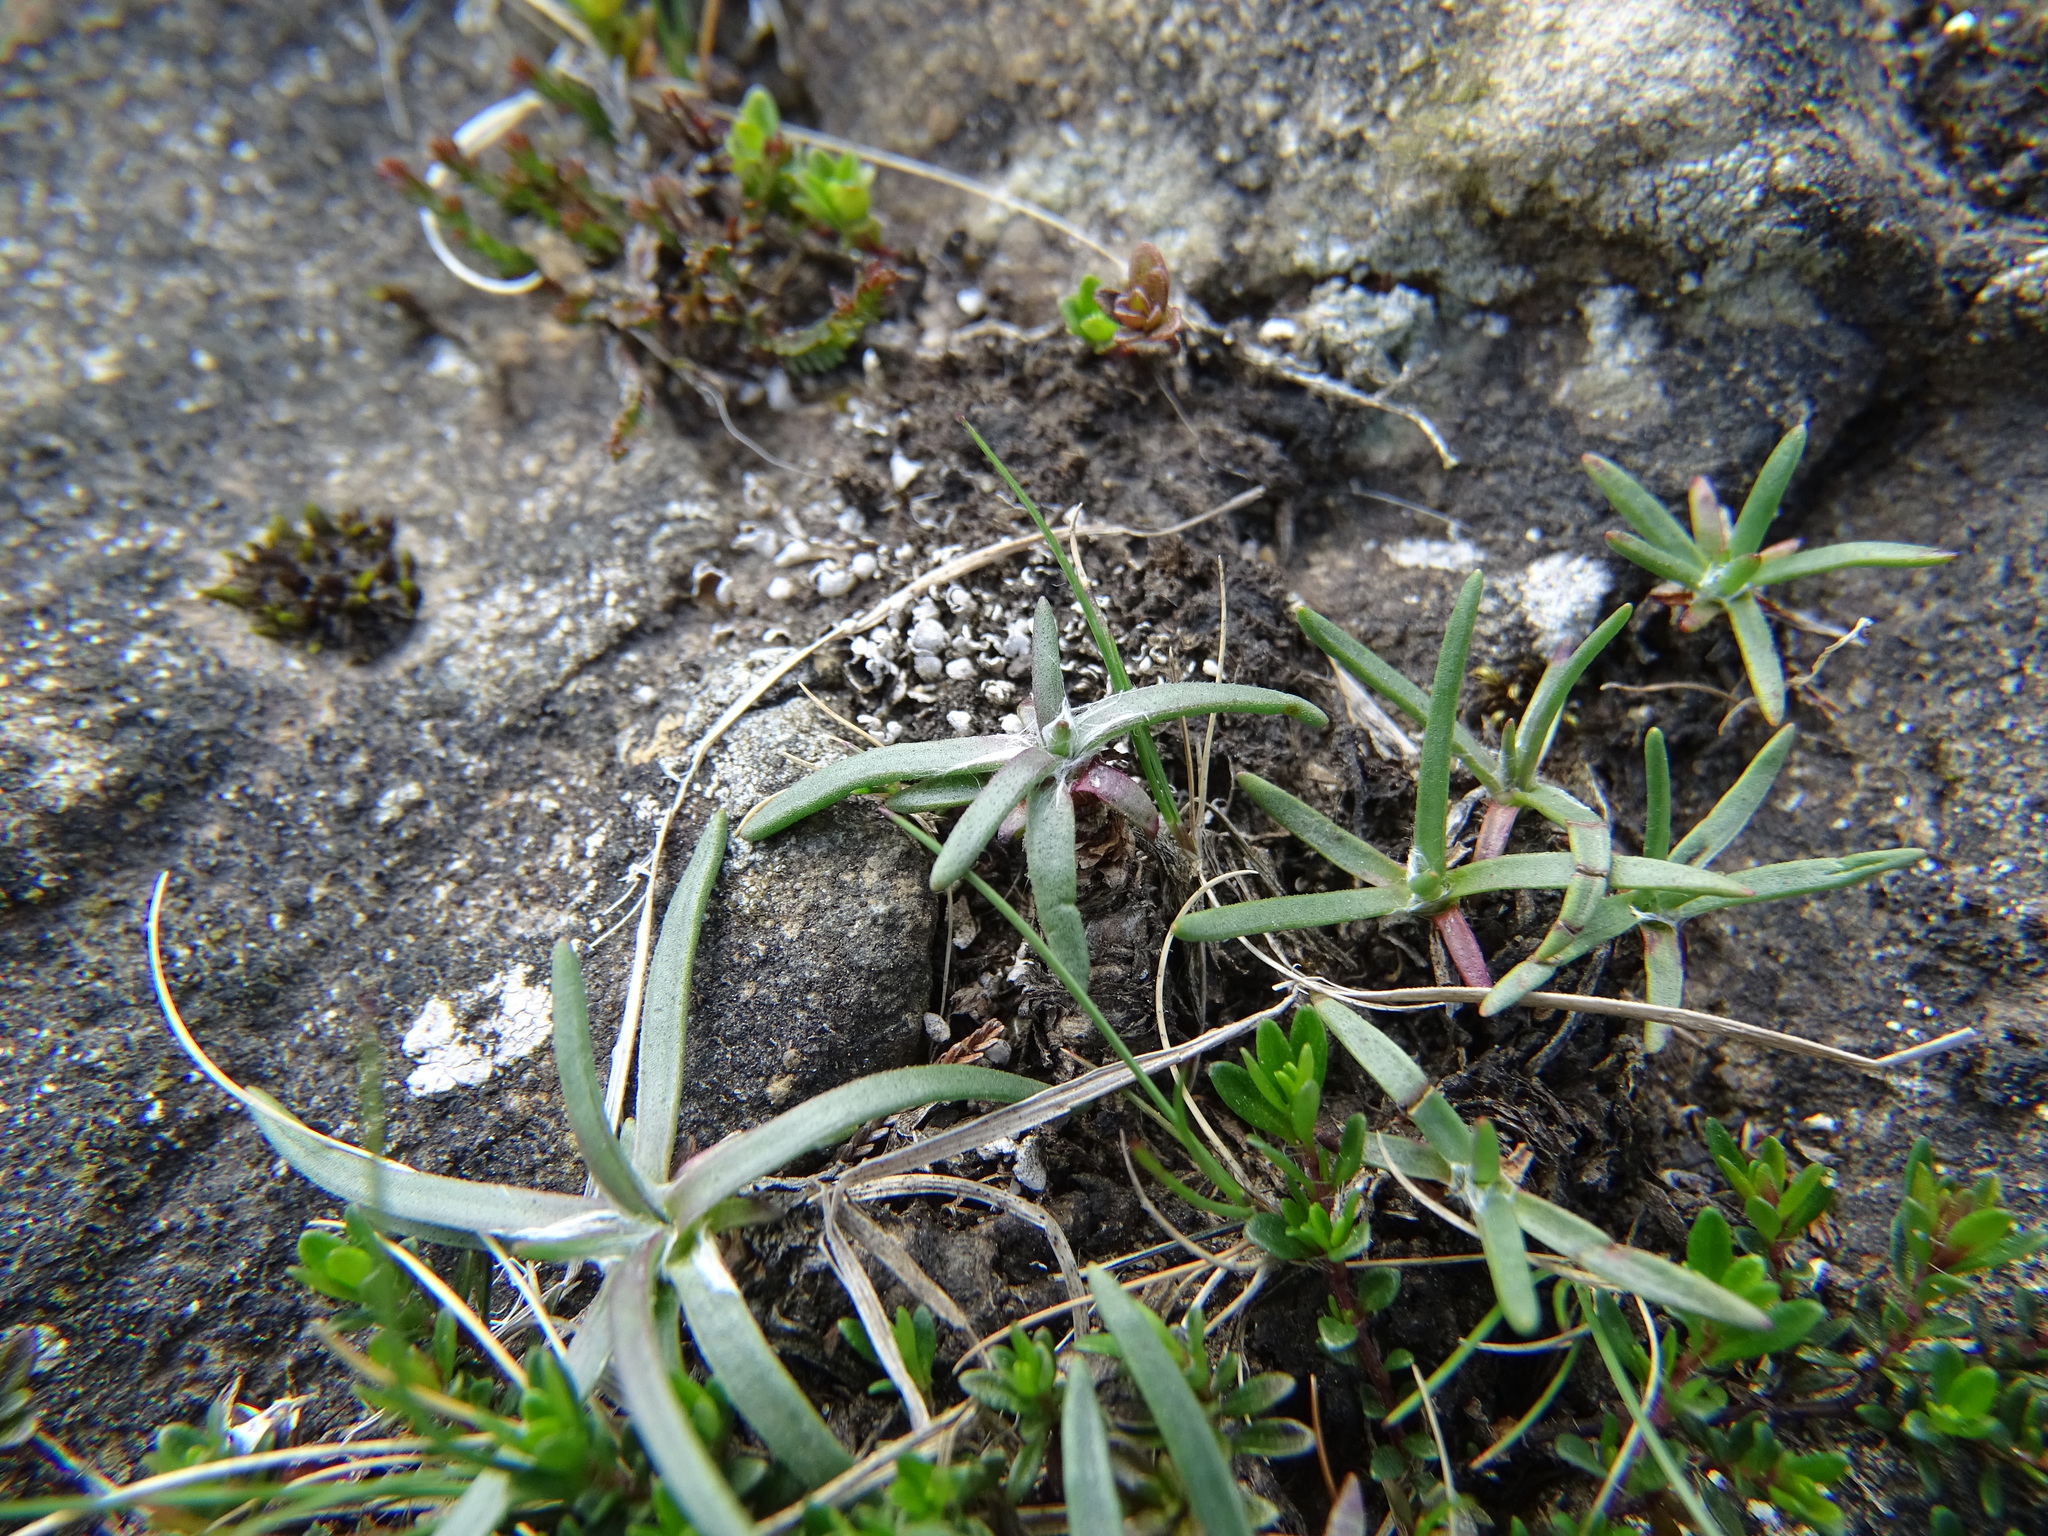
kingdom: Plantae
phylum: Tracheophyta
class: Magnoliopsida
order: Lamiales
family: Plantaginaceae
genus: Plantago
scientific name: Plantago maritima
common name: Sea plantain
